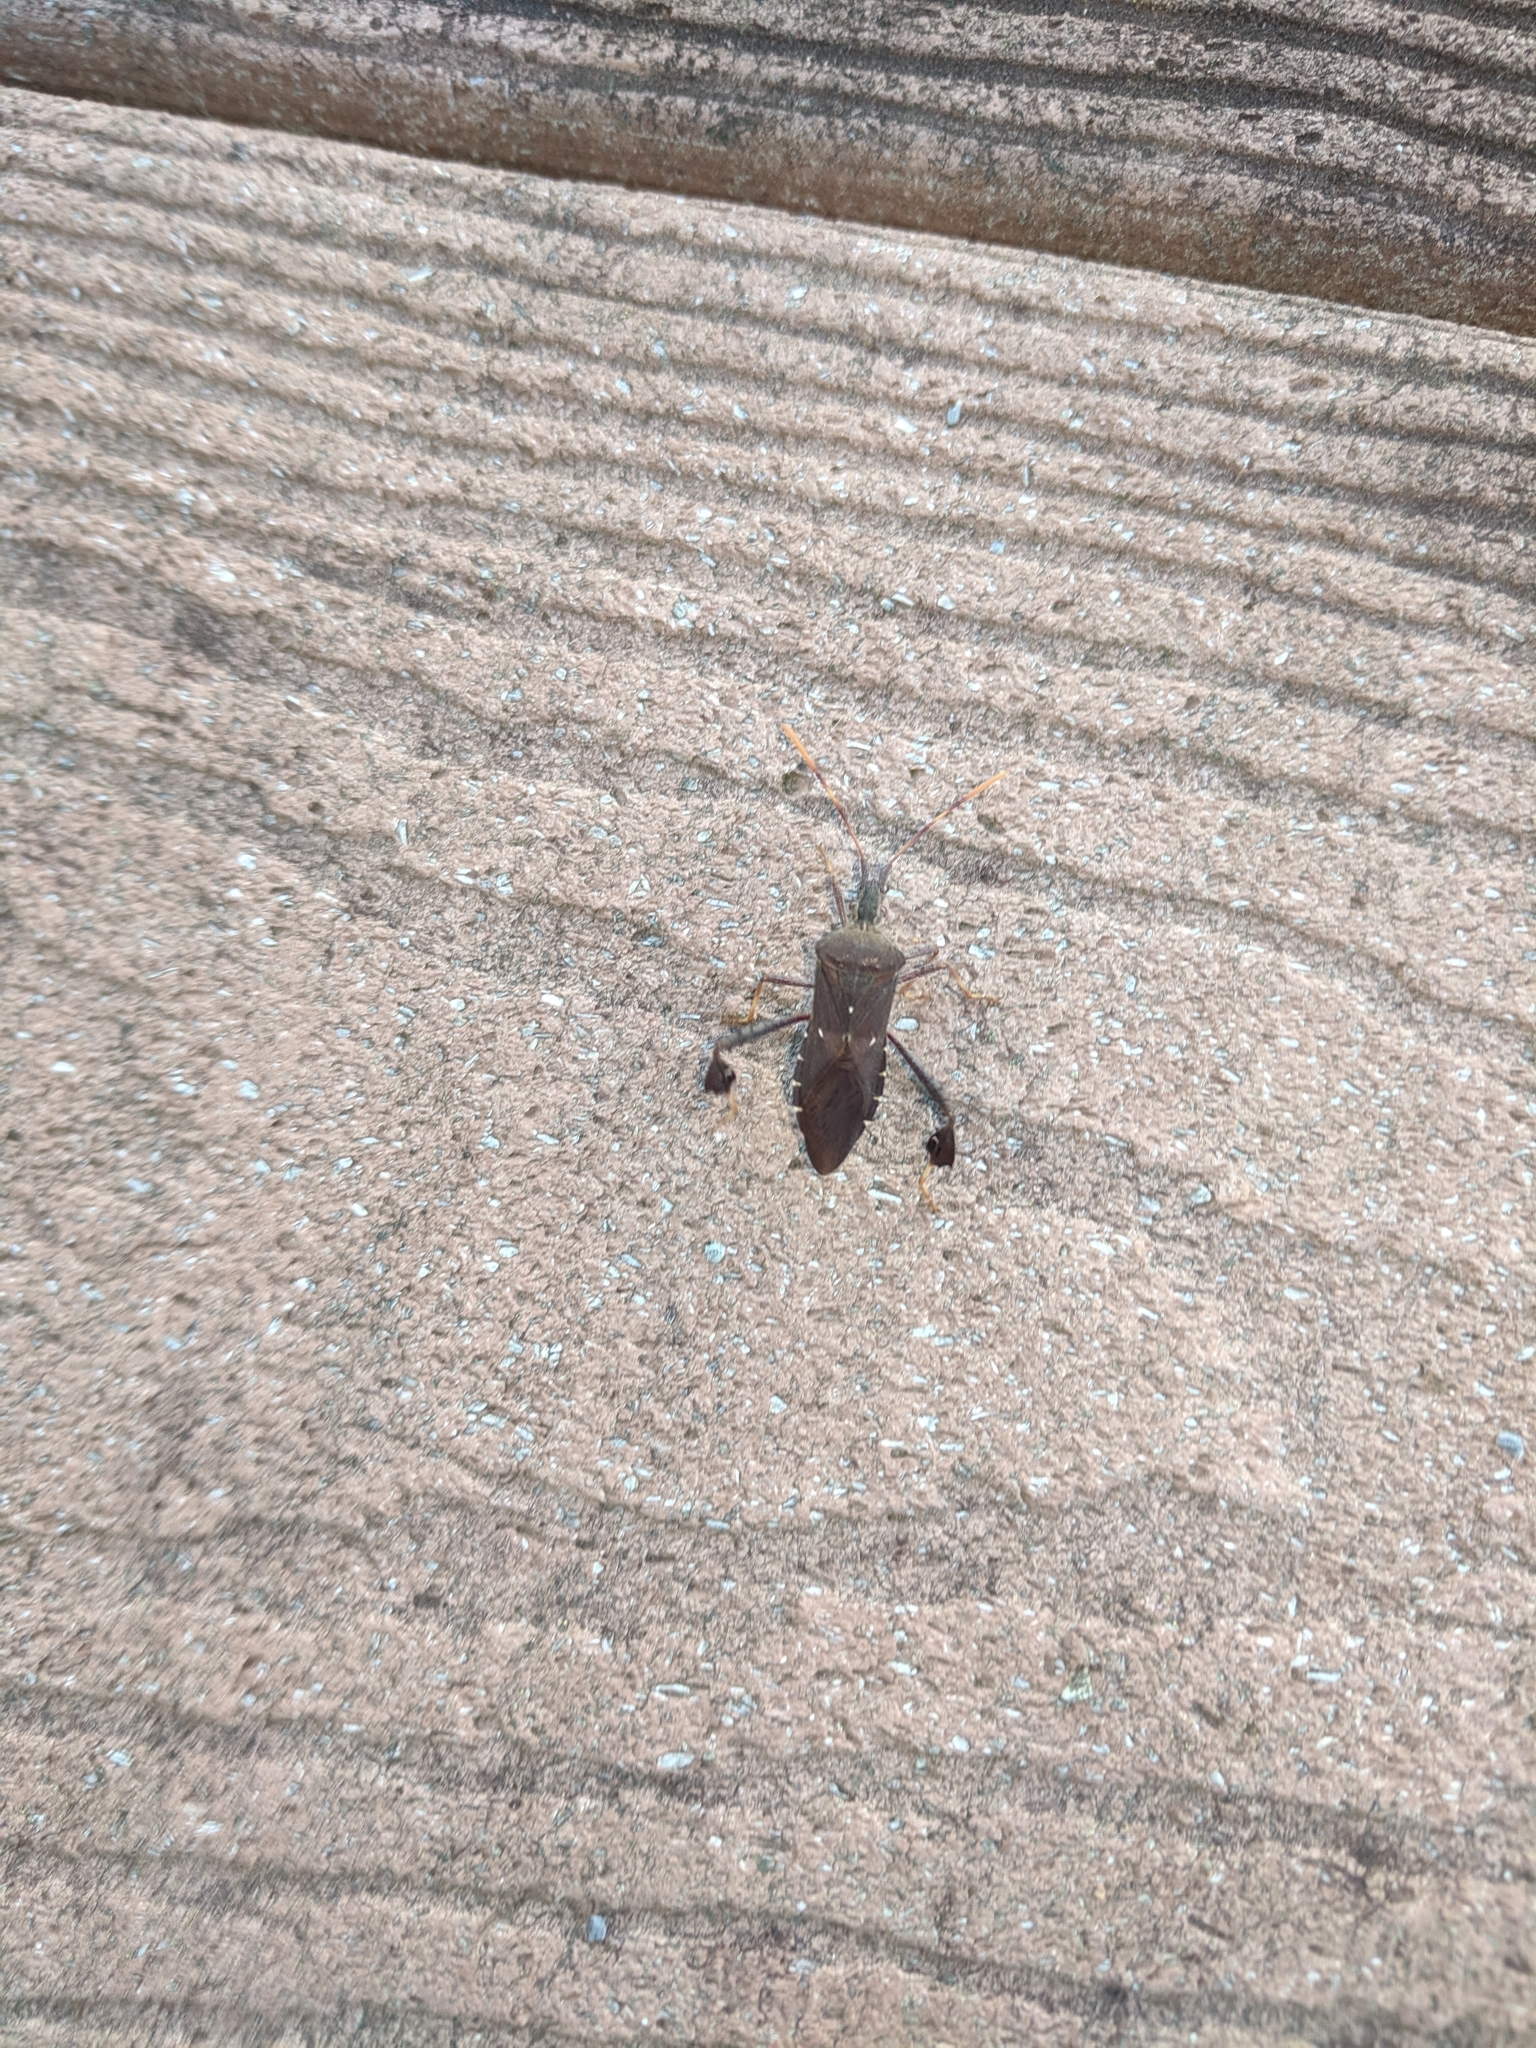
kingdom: Animalia
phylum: Arthropoda
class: Insecta
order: Hemiptera
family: Coreidae
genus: Leptoglossus
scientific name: Leptoglossus oppositus
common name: Northern leaf-footed bug
